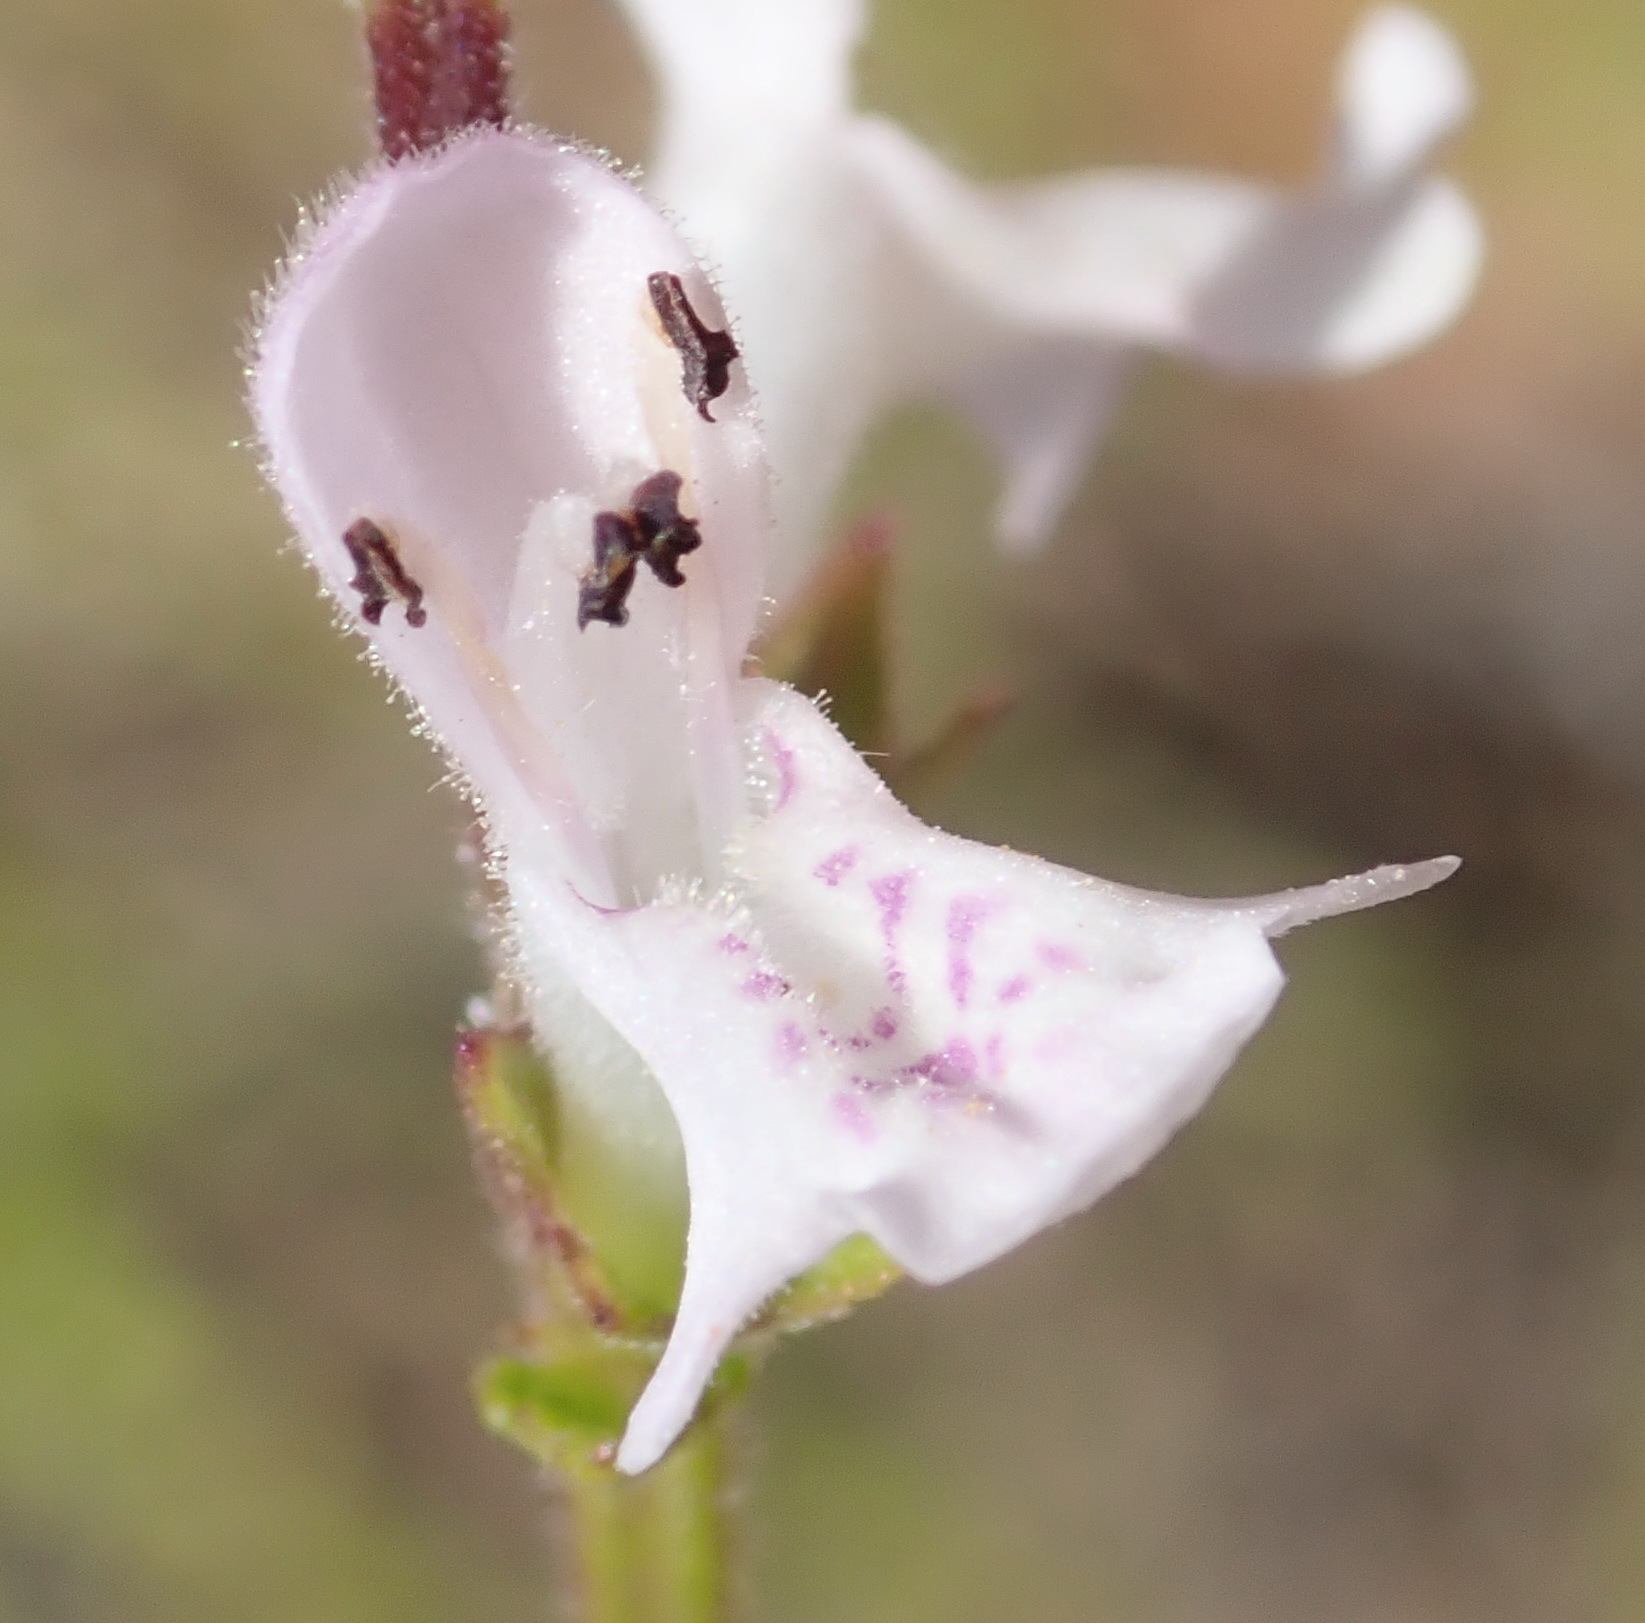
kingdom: Plantae
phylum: Tracheophyta
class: Magnoliopsida
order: Lamiales
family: Lamiaceae
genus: Stachys
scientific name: Stachys aethiopica
